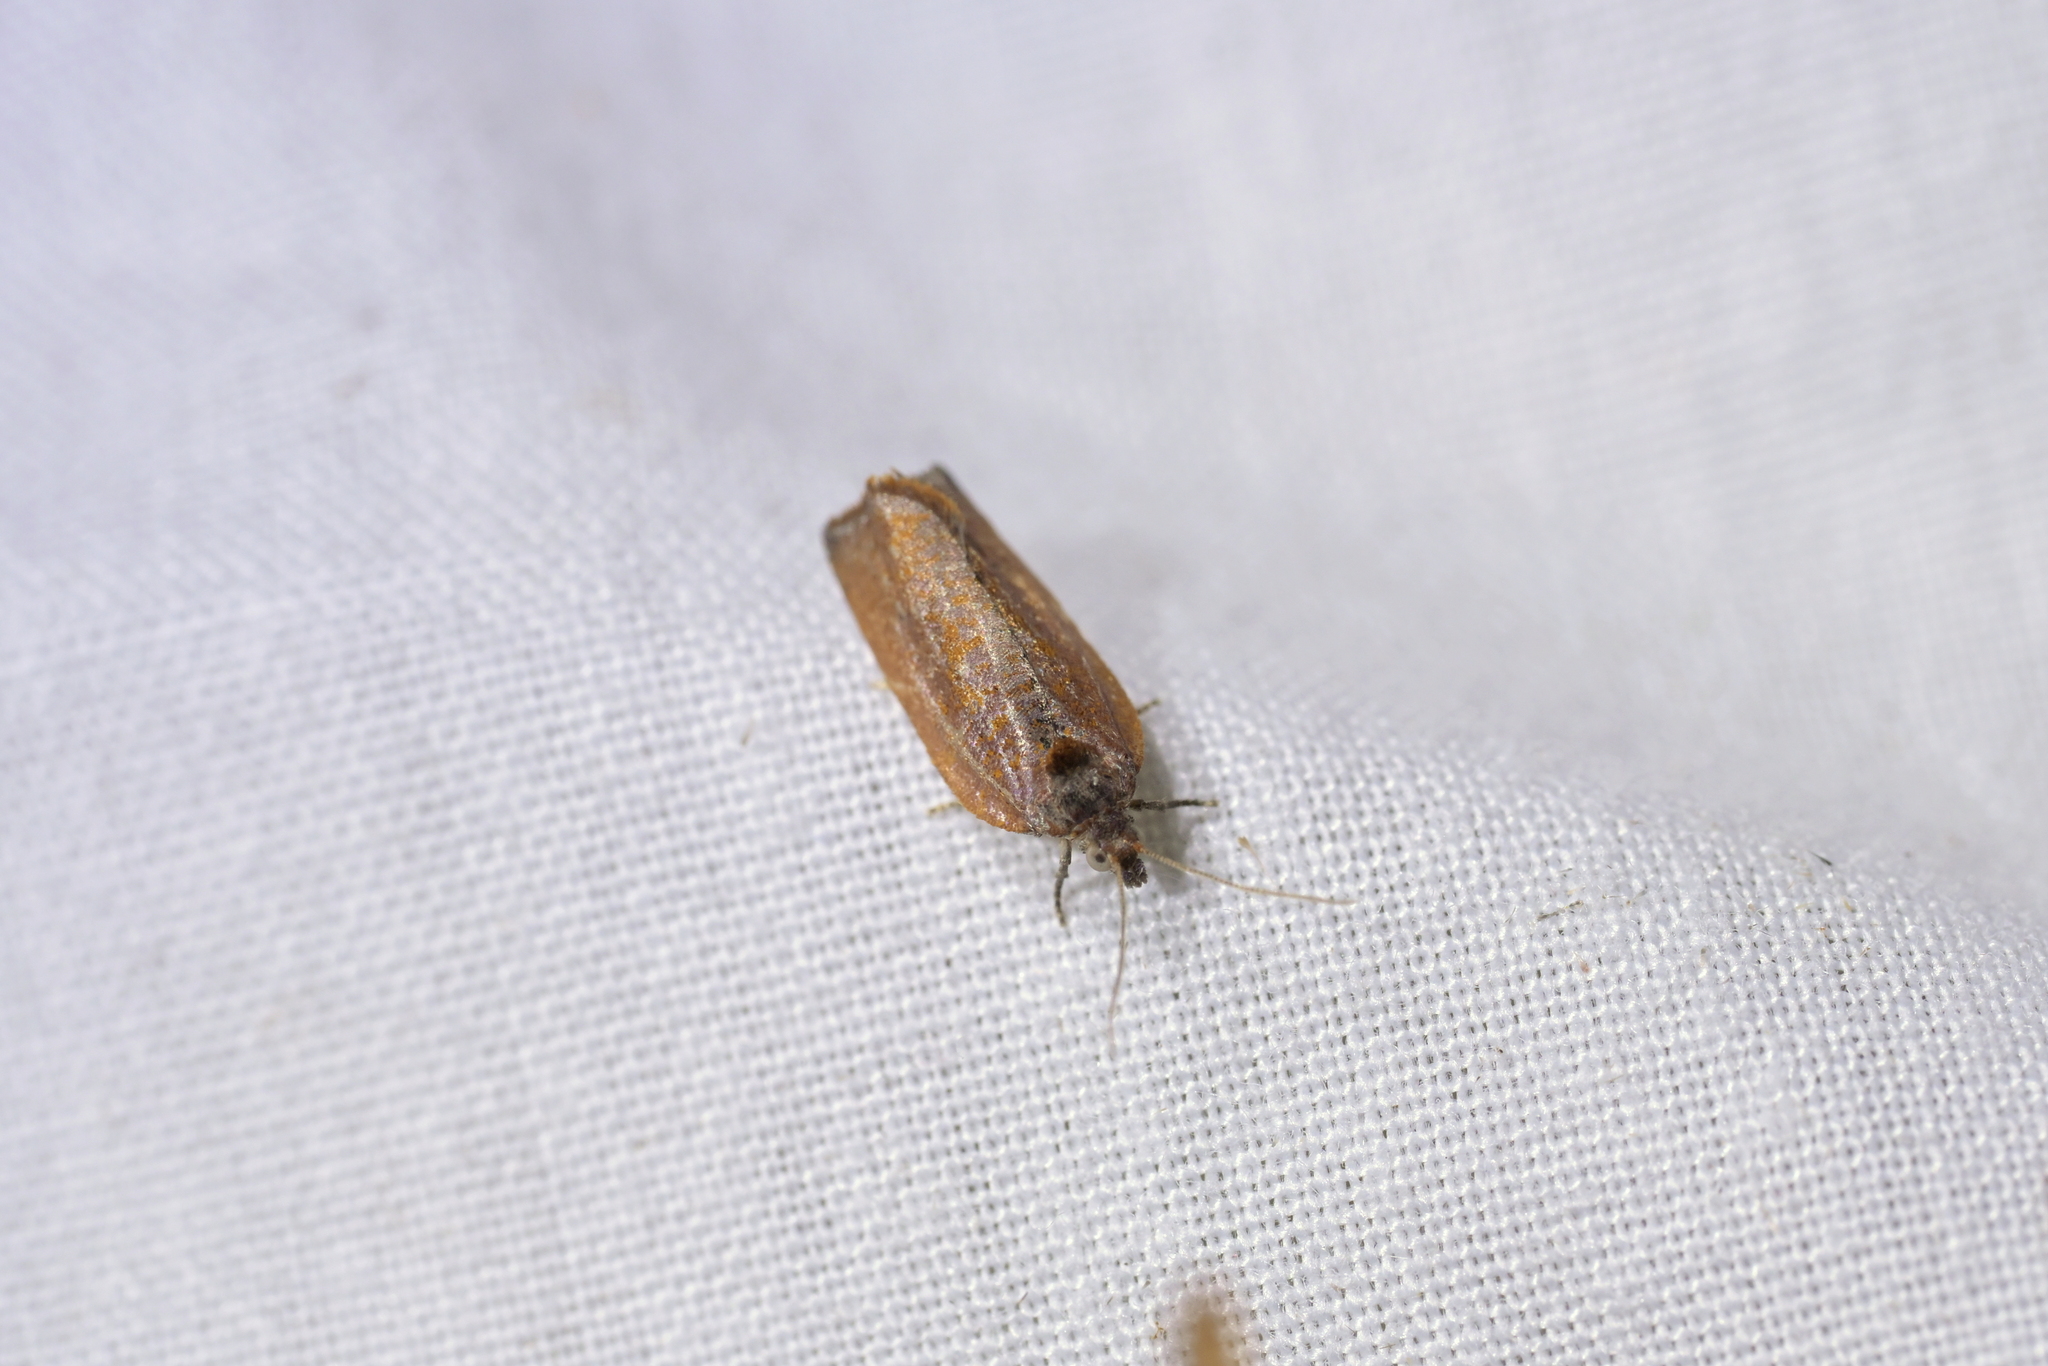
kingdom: Animalia
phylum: Arthropoda
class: Insecta
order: Lepidoptera
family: Tortricidae
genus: Pyrgotis
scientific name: Pyrgotis chrysomela
